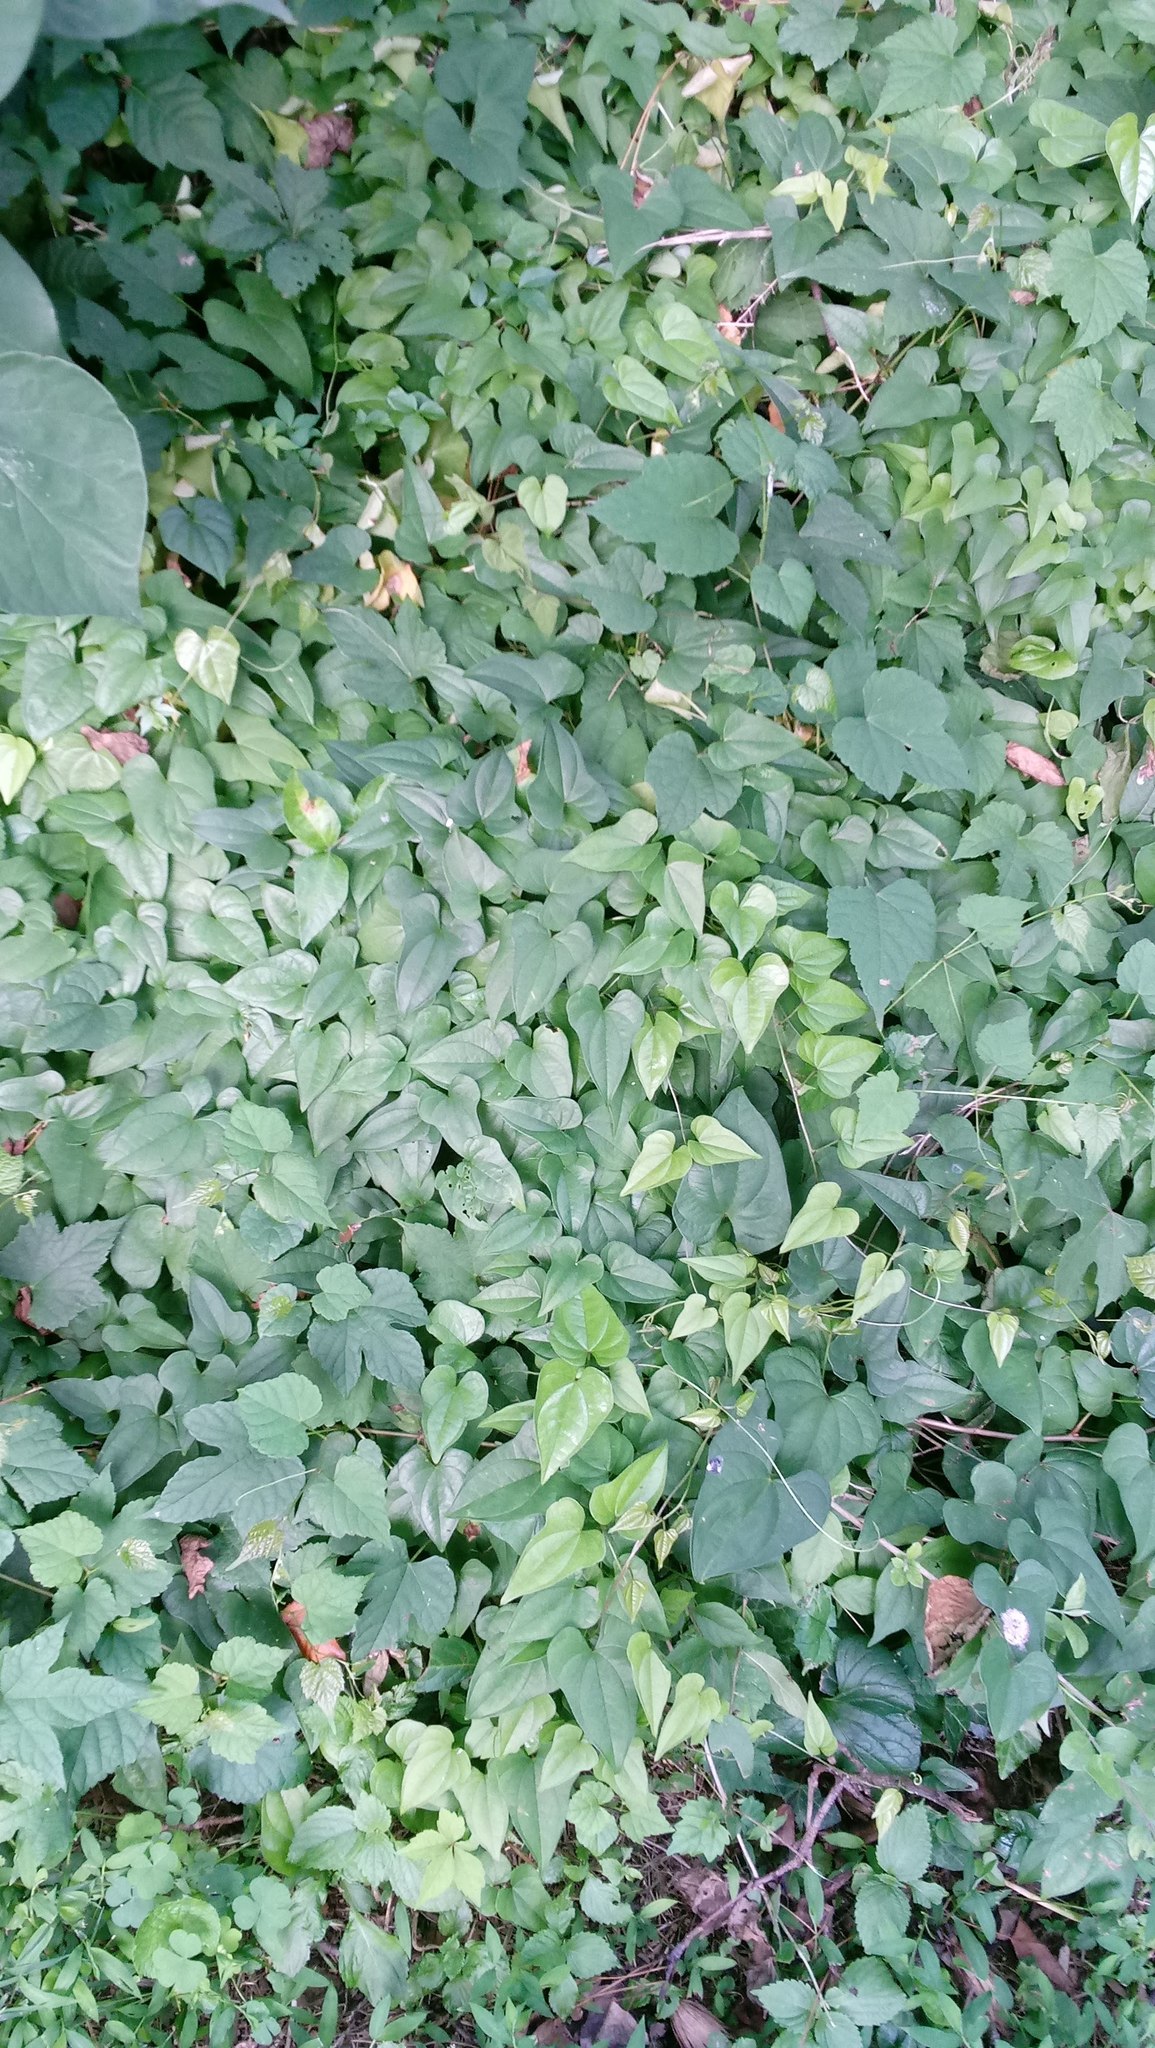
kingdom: Plantae
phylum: Tracheophyta
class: Liliopsida
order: Dioscoreales
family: Dioscoreaceae
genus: Dioscorea
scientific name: Dioscorea polystachya
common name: Chinese yam
